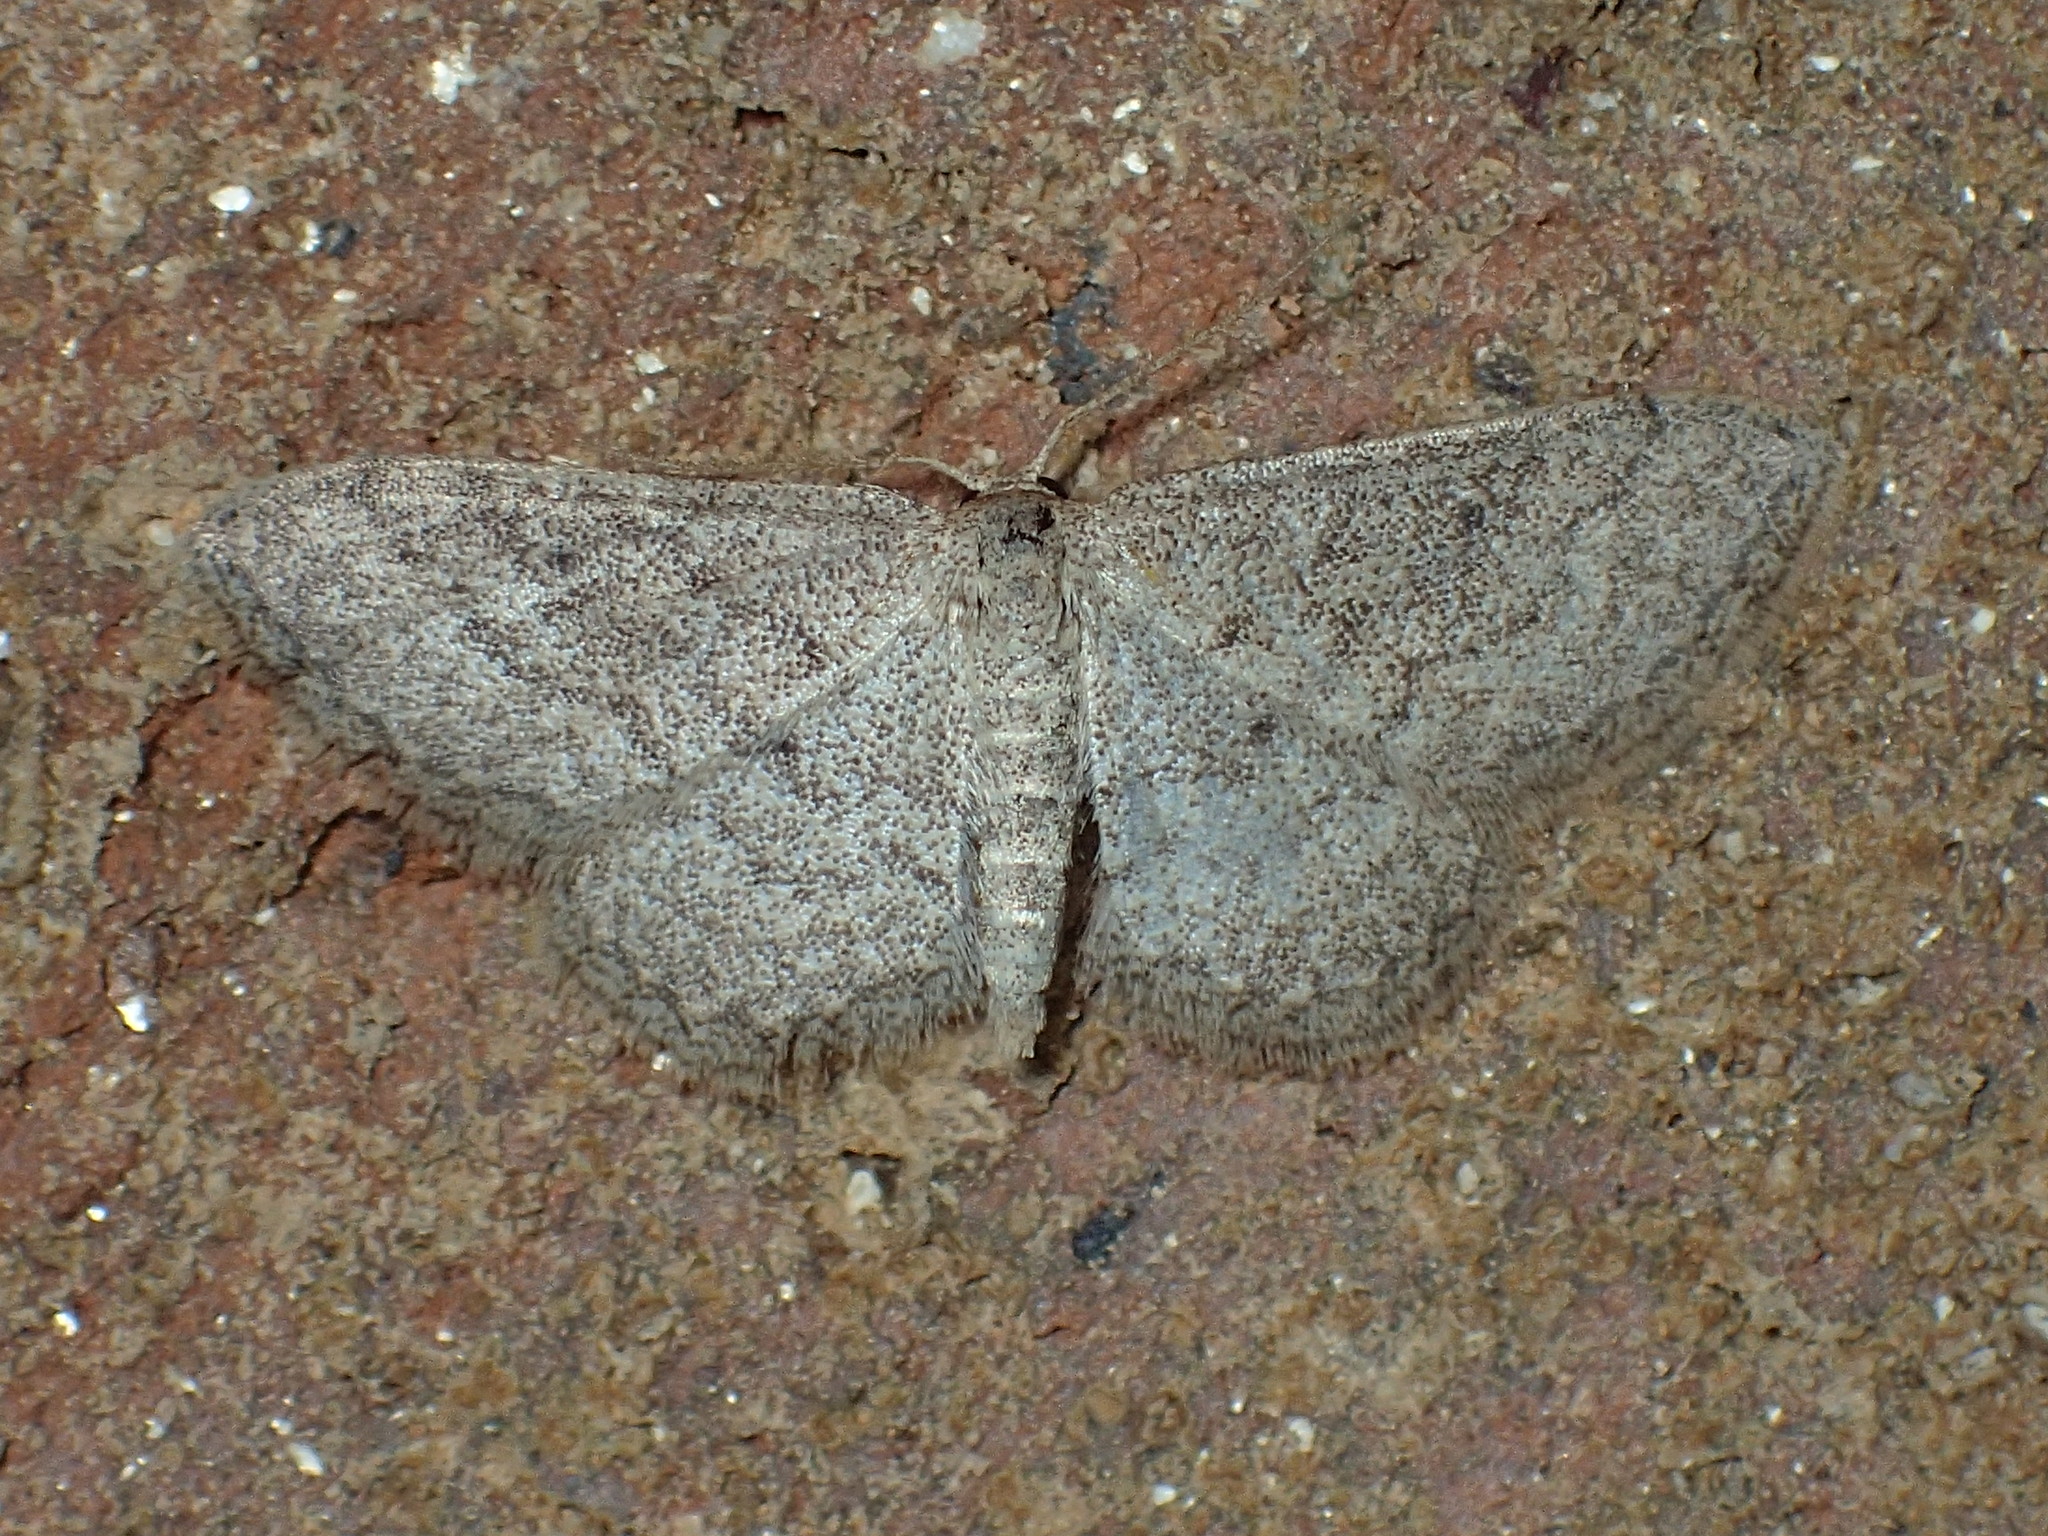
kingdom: Animalia
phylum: Arthropoda
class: Insecta
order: Lepidoptera
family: Geometridae
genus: Lobocleta
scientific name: Lobocleta ossularia
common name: Drab brown wave
